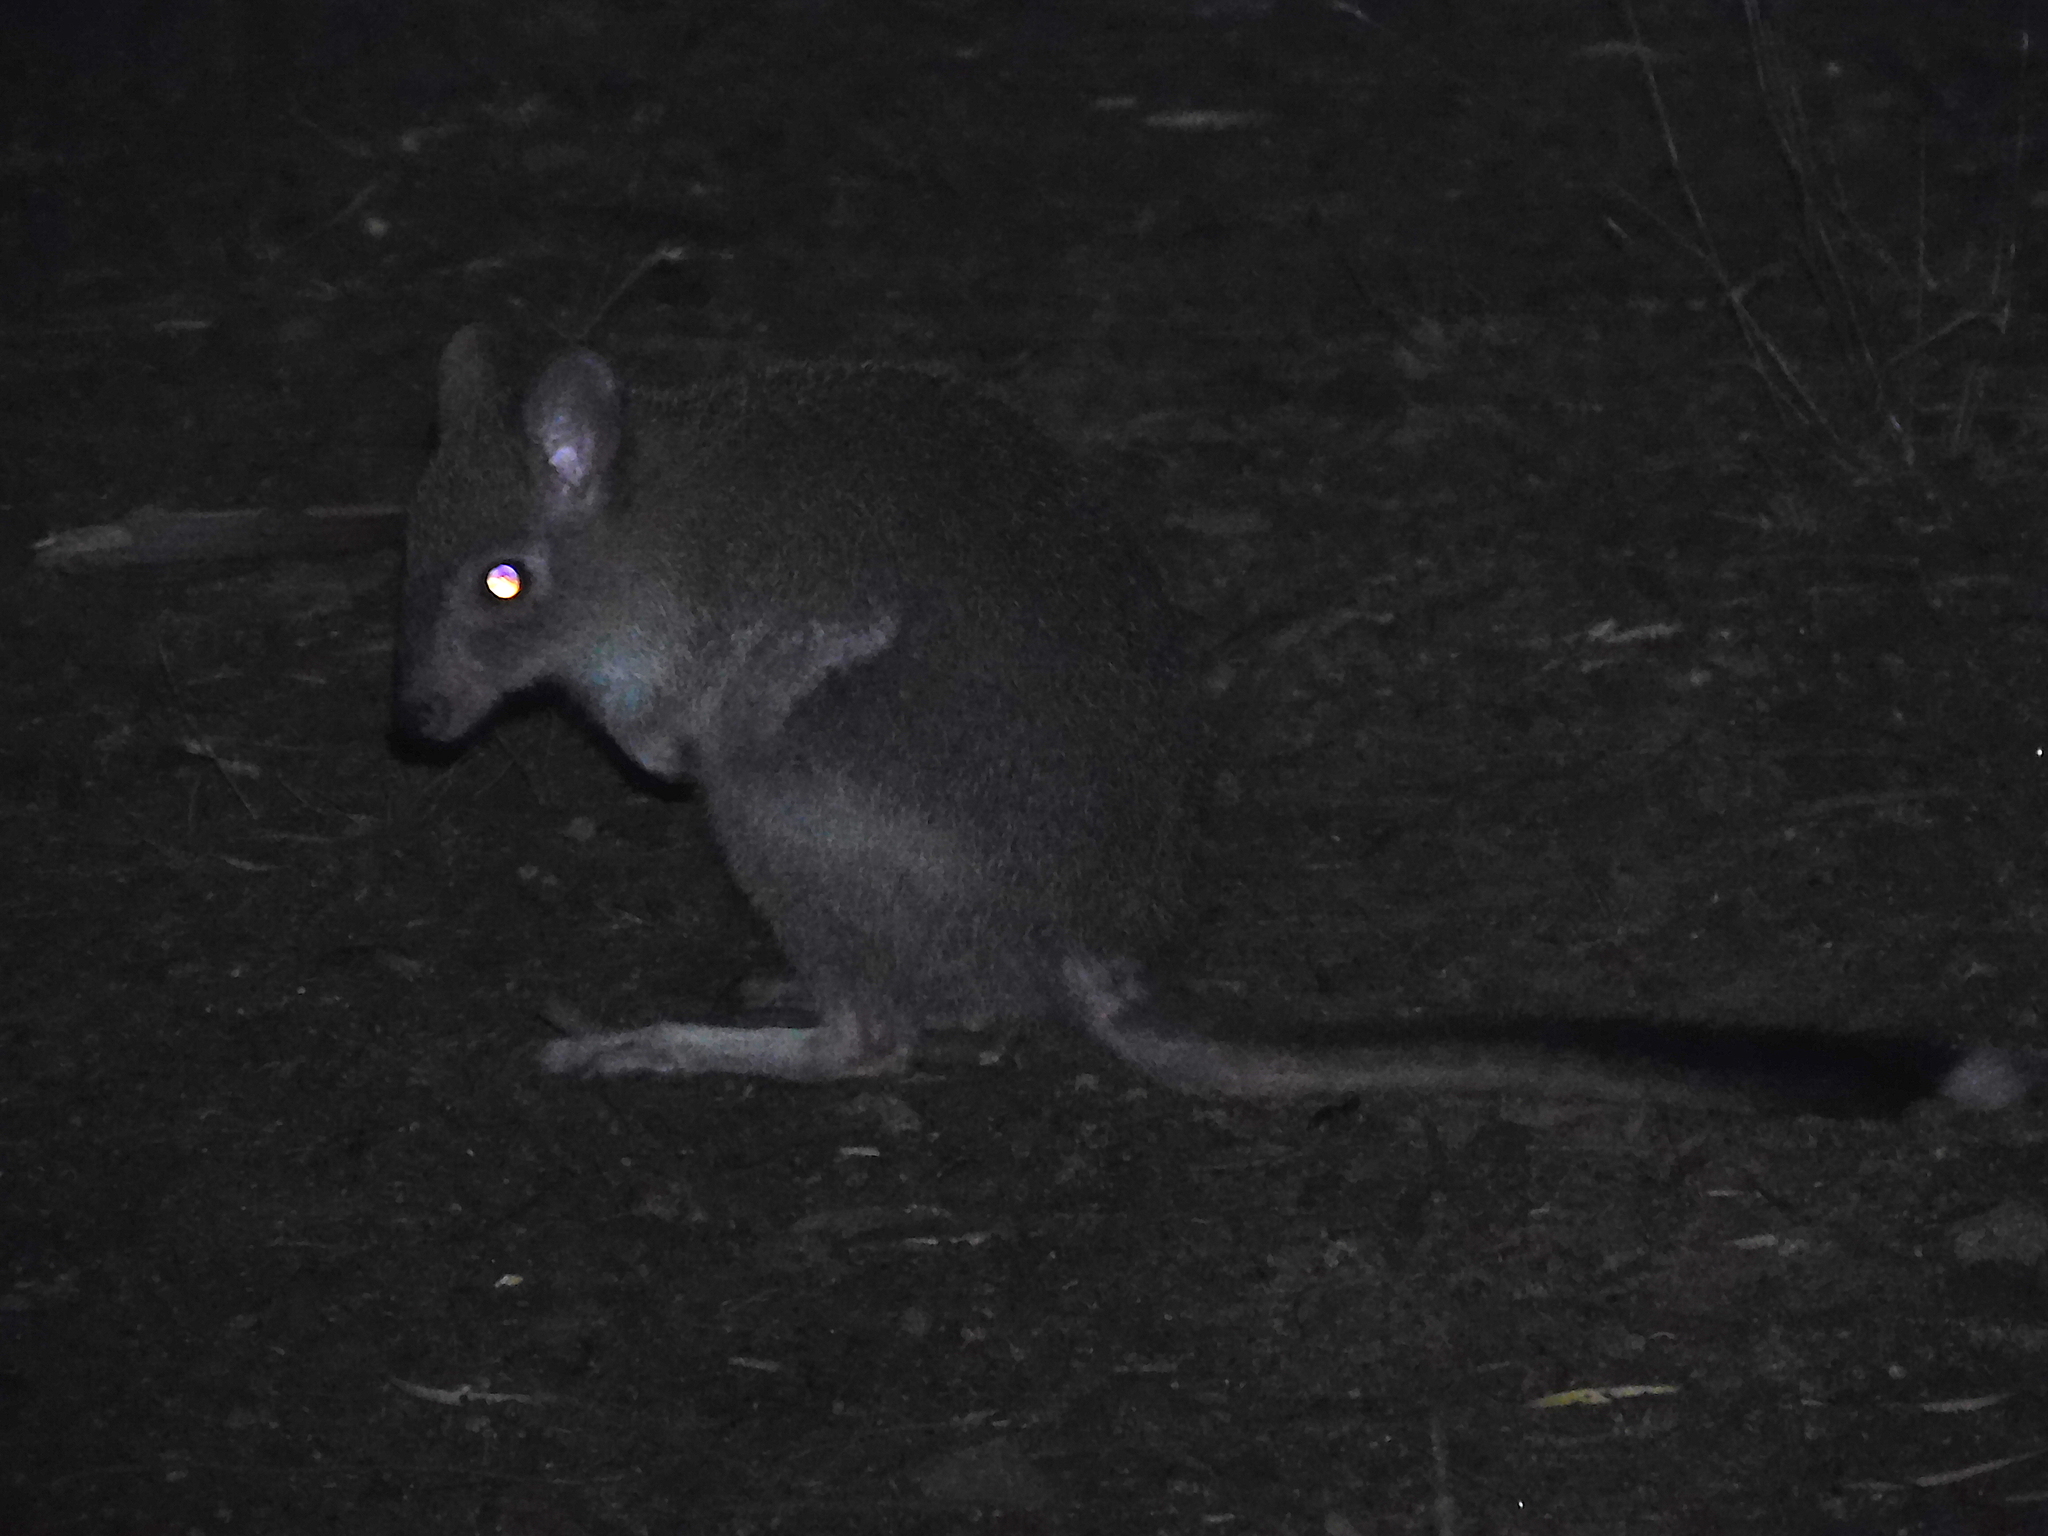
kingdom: Animalia
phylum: Chordata
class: Mammalia
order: Diprotodontia
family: Potoroidae
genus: Bettongia
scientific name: Bettongia gaimardi
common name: Eastern bettong
